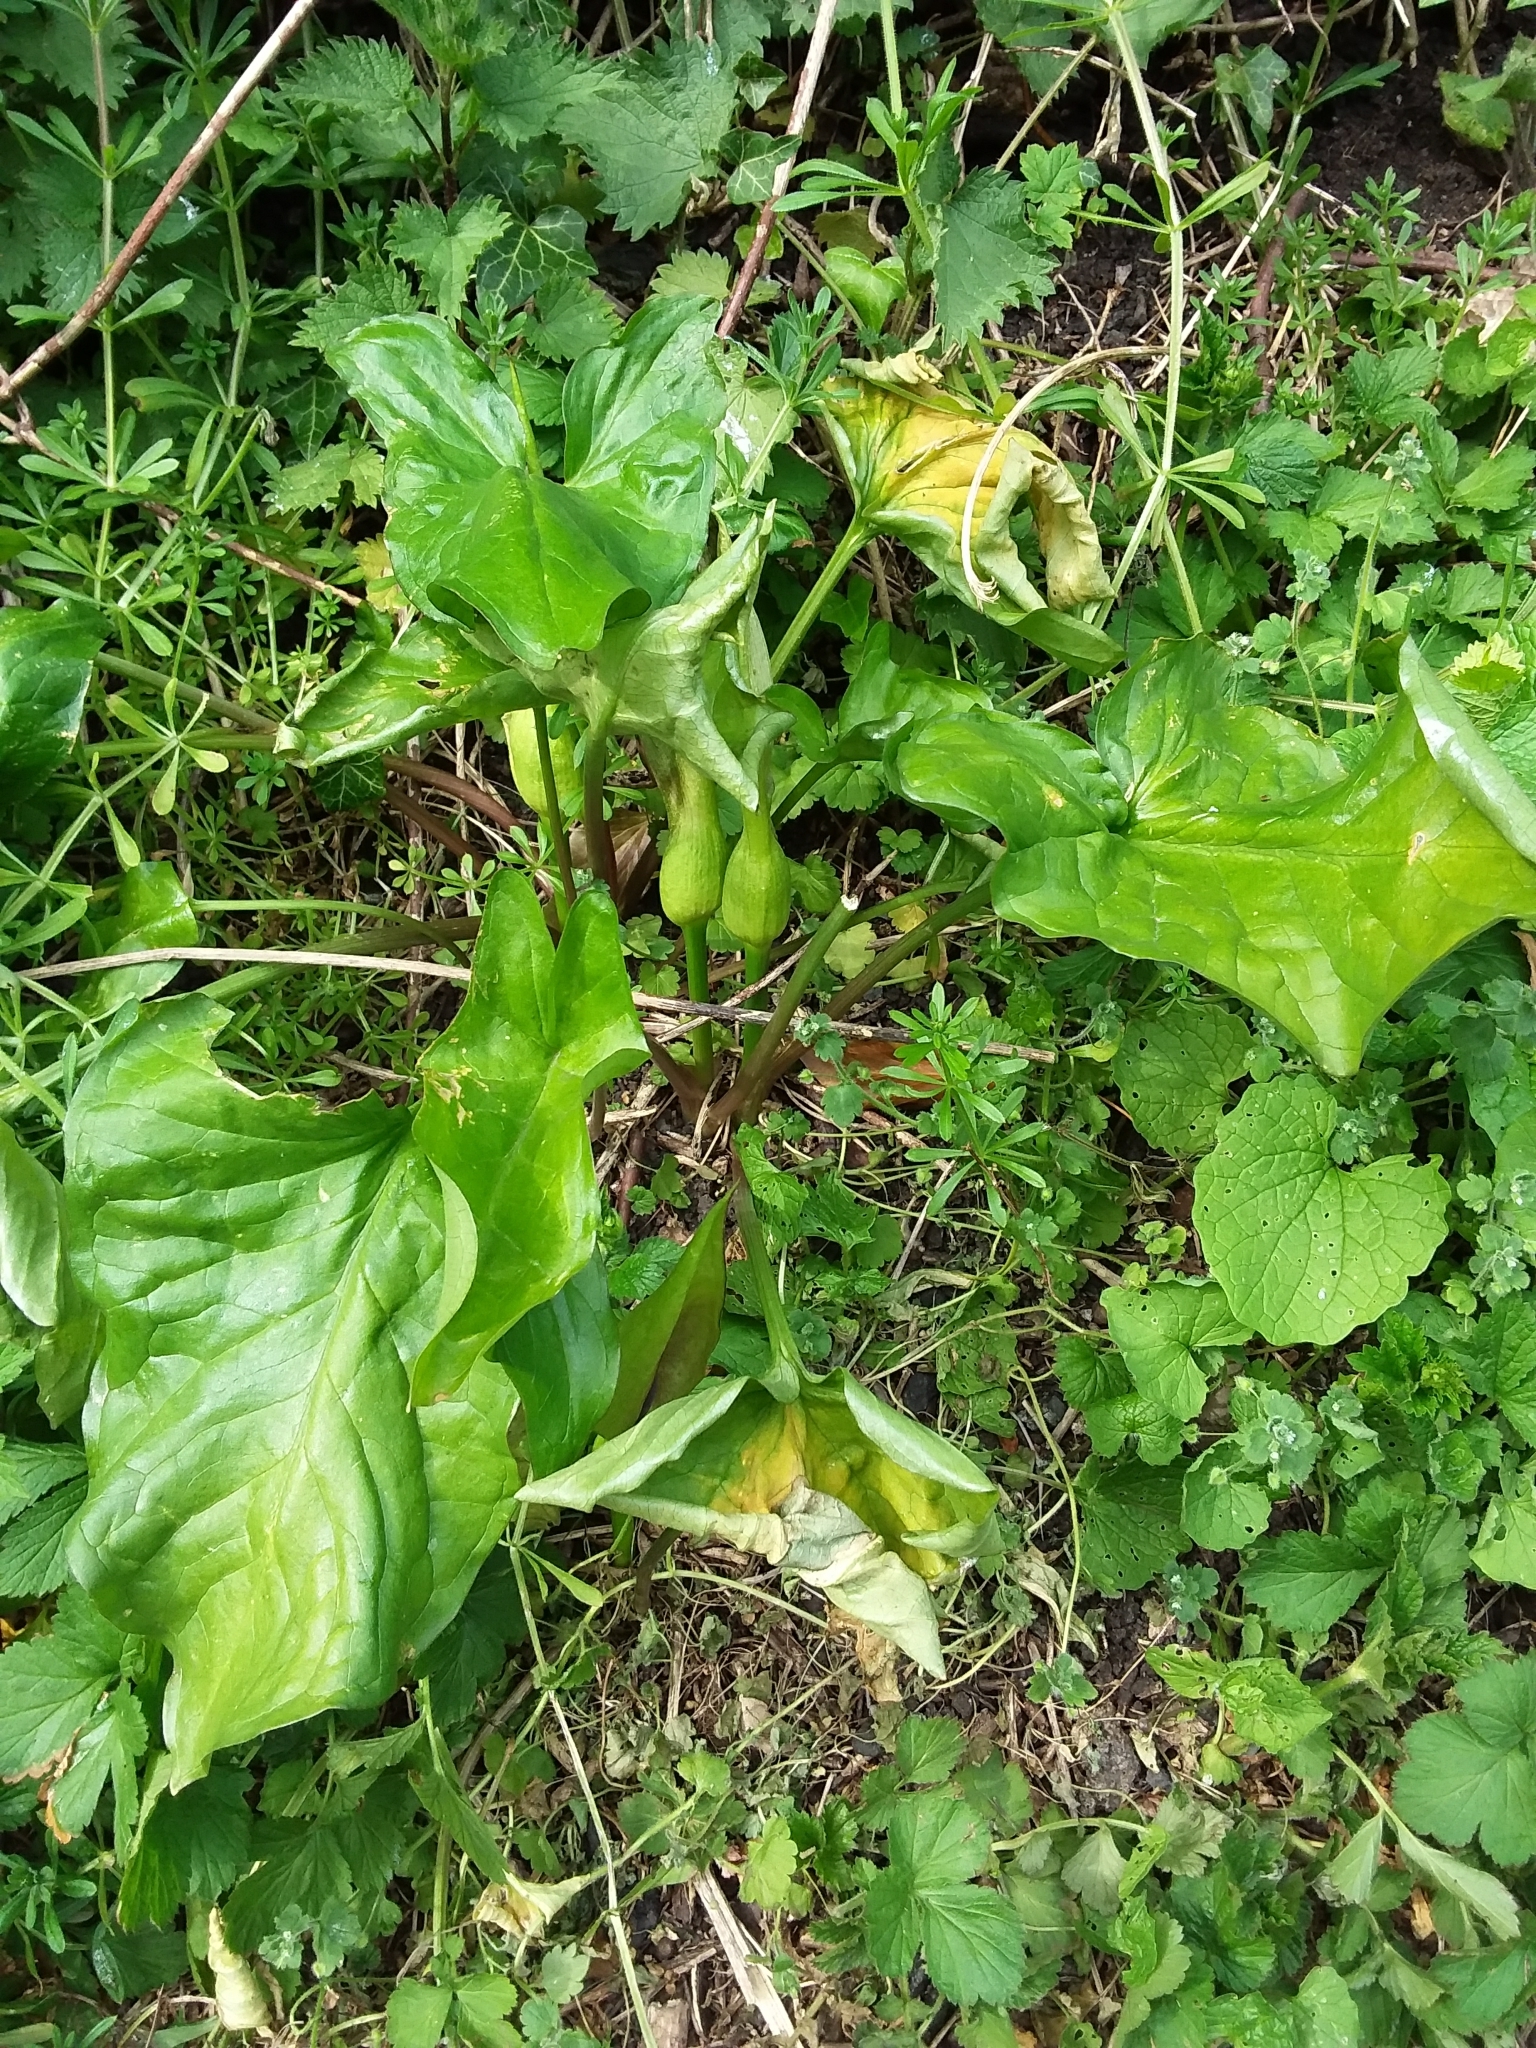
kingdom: Plantae
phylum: Tracheophyta
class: Liliopsida
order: Alismatales
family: Araceae
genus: Arum
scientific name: Arum maculatum
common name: Lords-and-ladies
